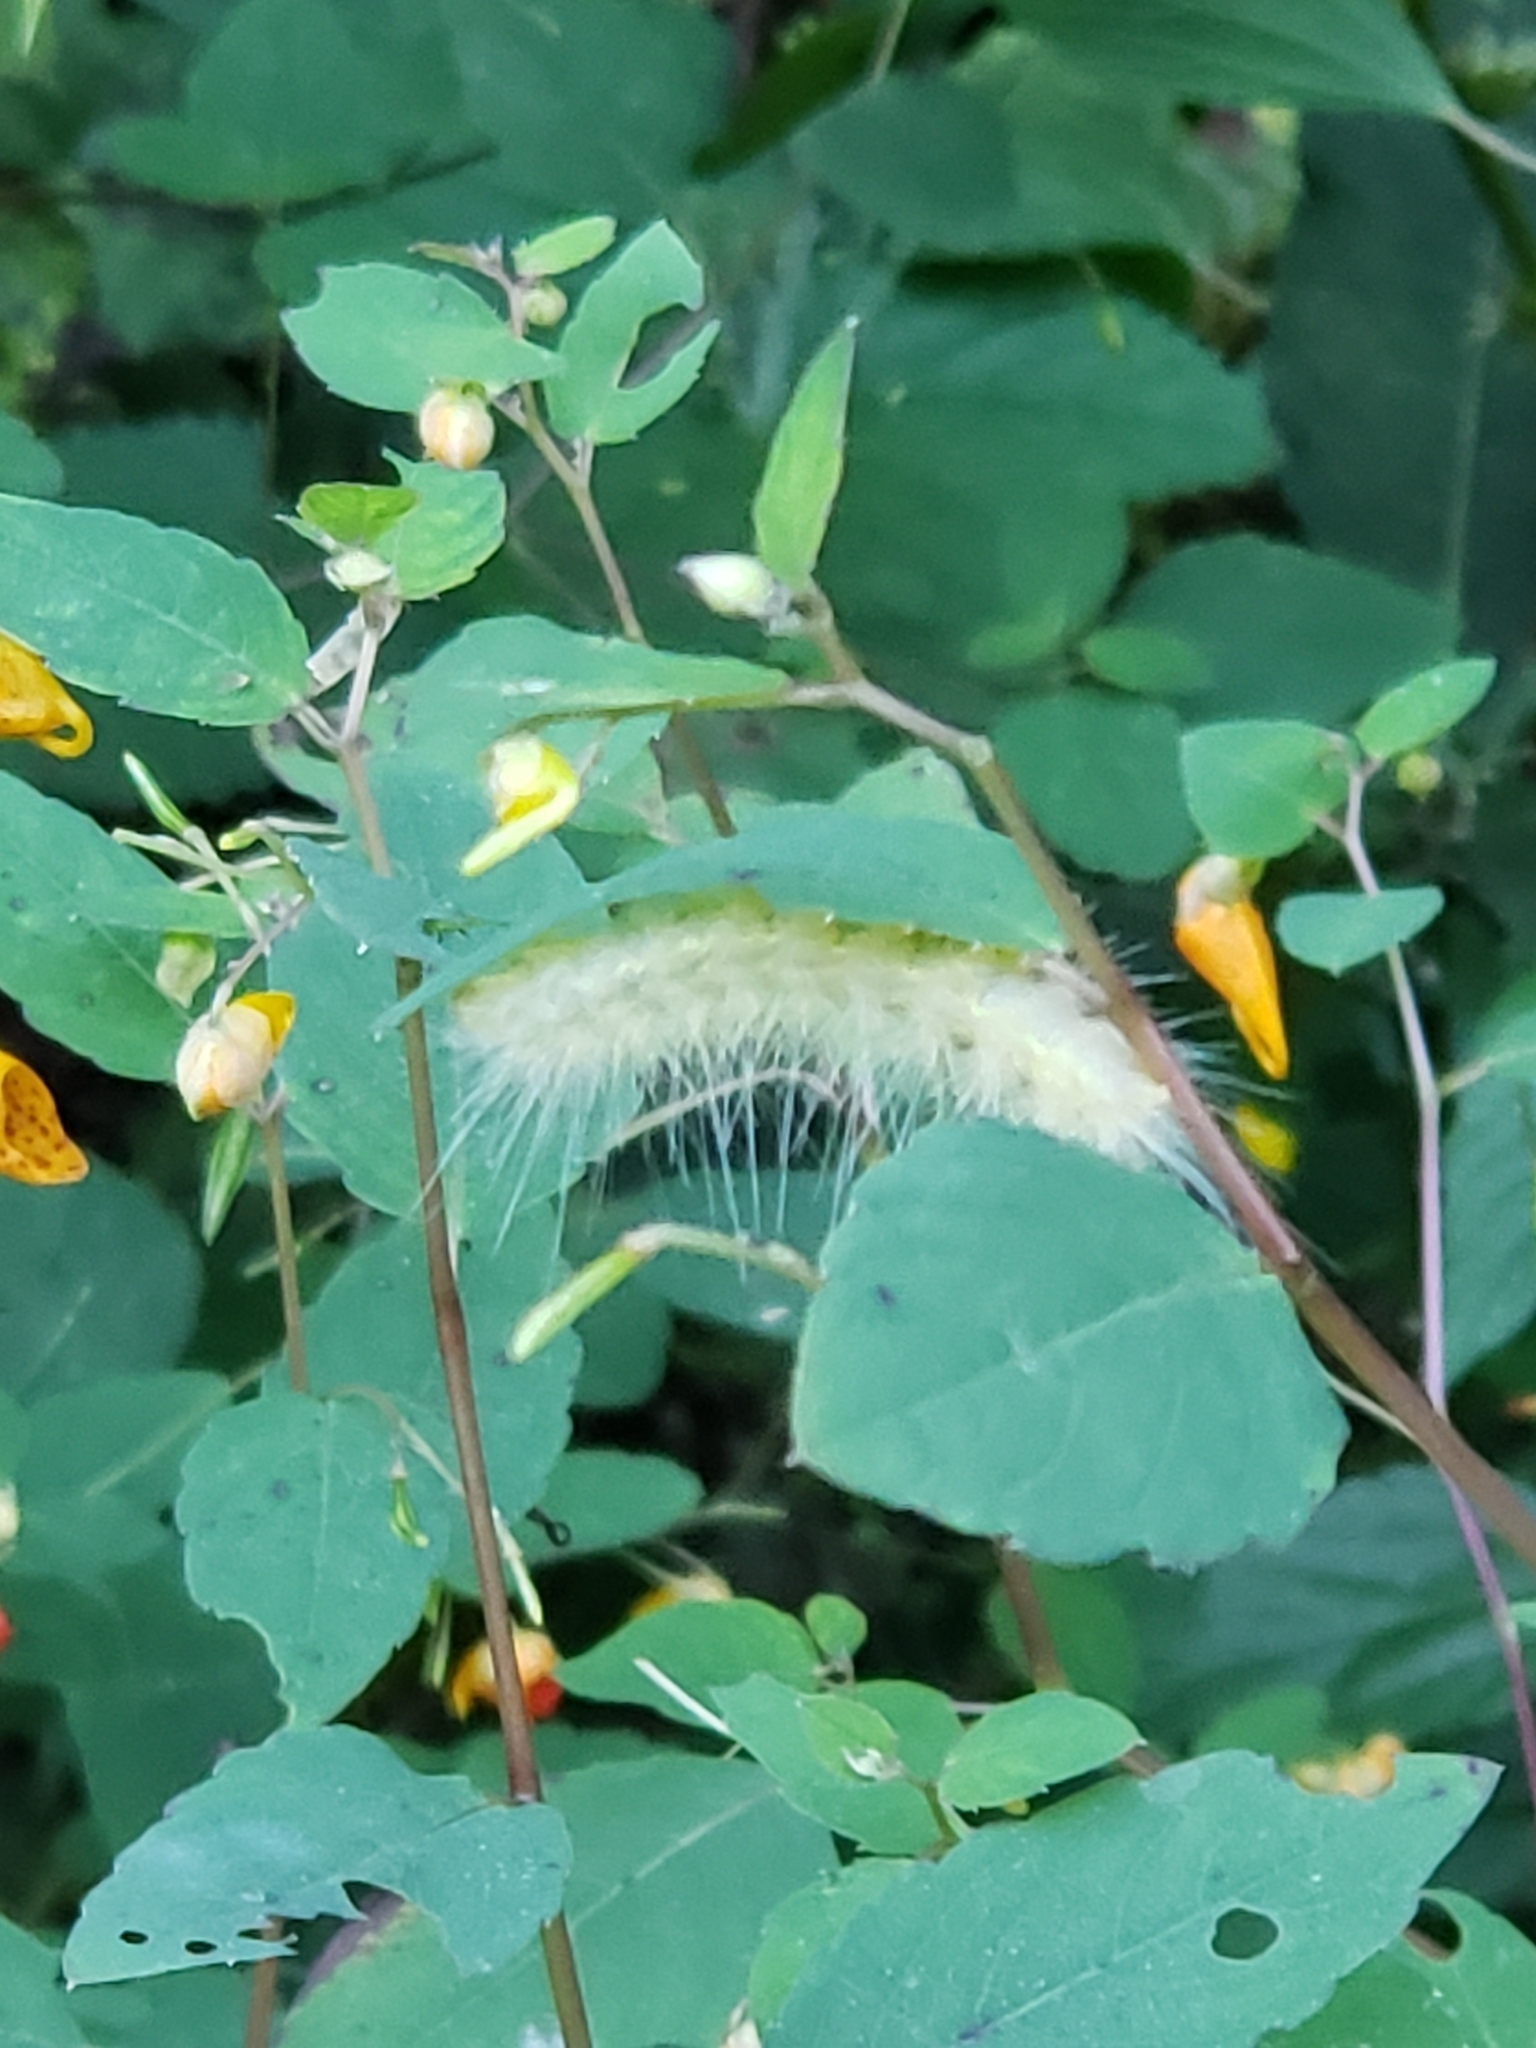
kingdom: Animalia
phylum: Arthropoda
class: Insecta
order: Lepidoptera
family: Erebidae
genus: Spilosoma
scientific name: Spilosoma virginica
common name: Virginia tiger moth
